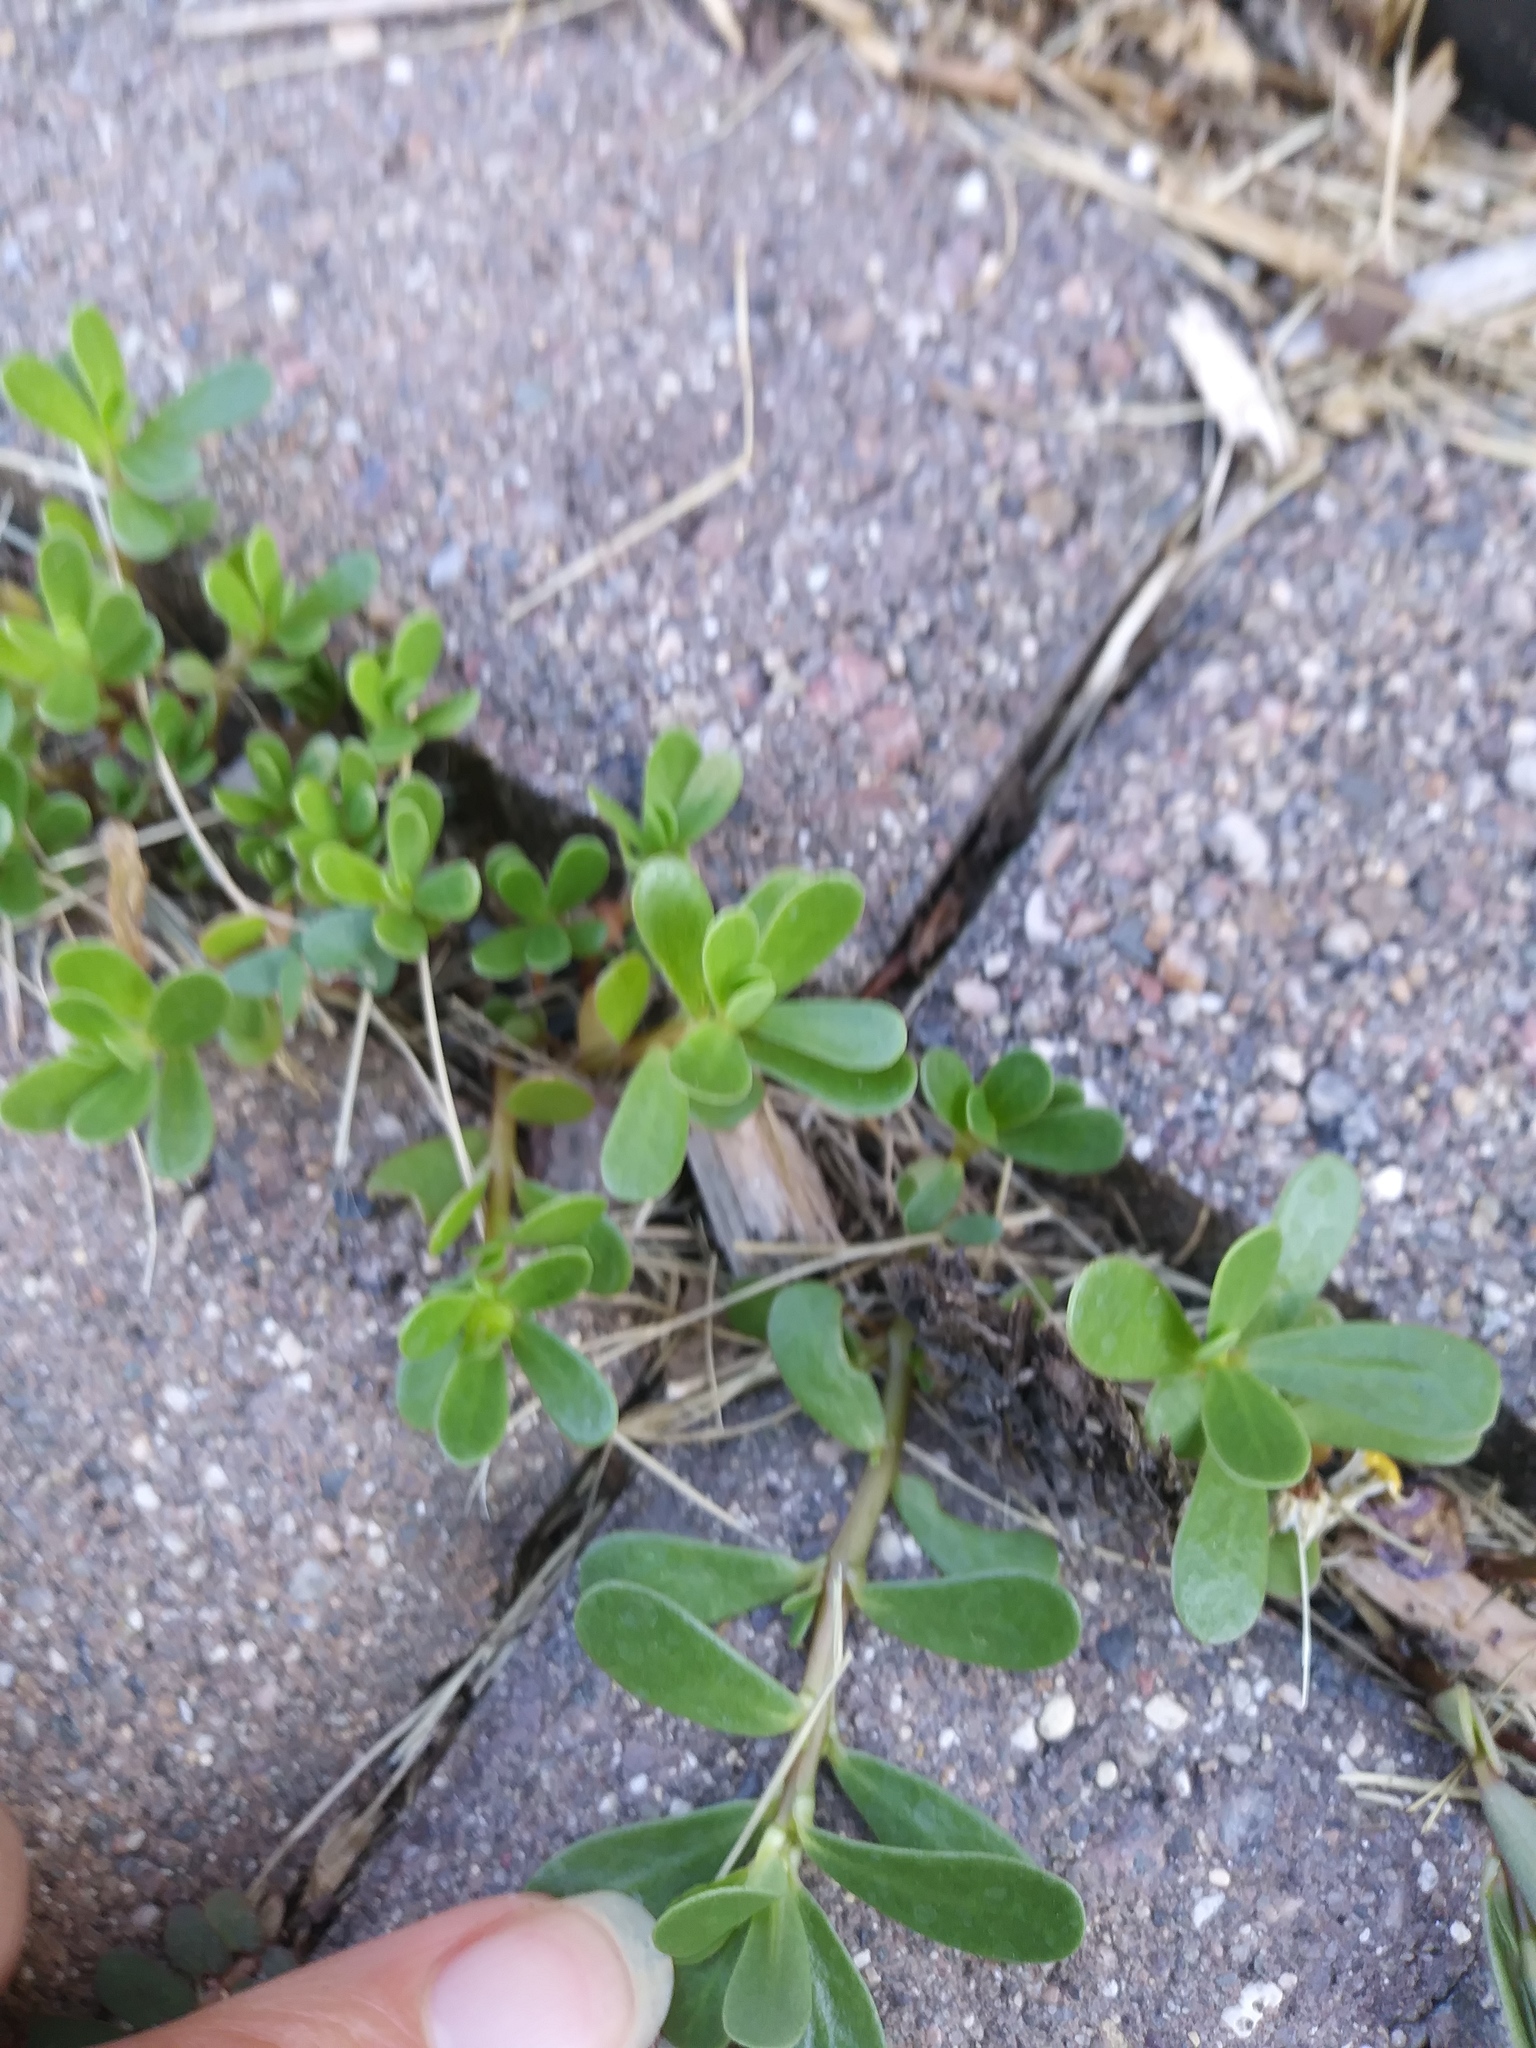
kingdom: Plantae
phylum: Tracheophyta
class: Magnoliopsida
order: Caryophyllales
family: Portulacaceae
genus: Portulaca
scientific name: Portulaca oleracea
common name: Common purslane
